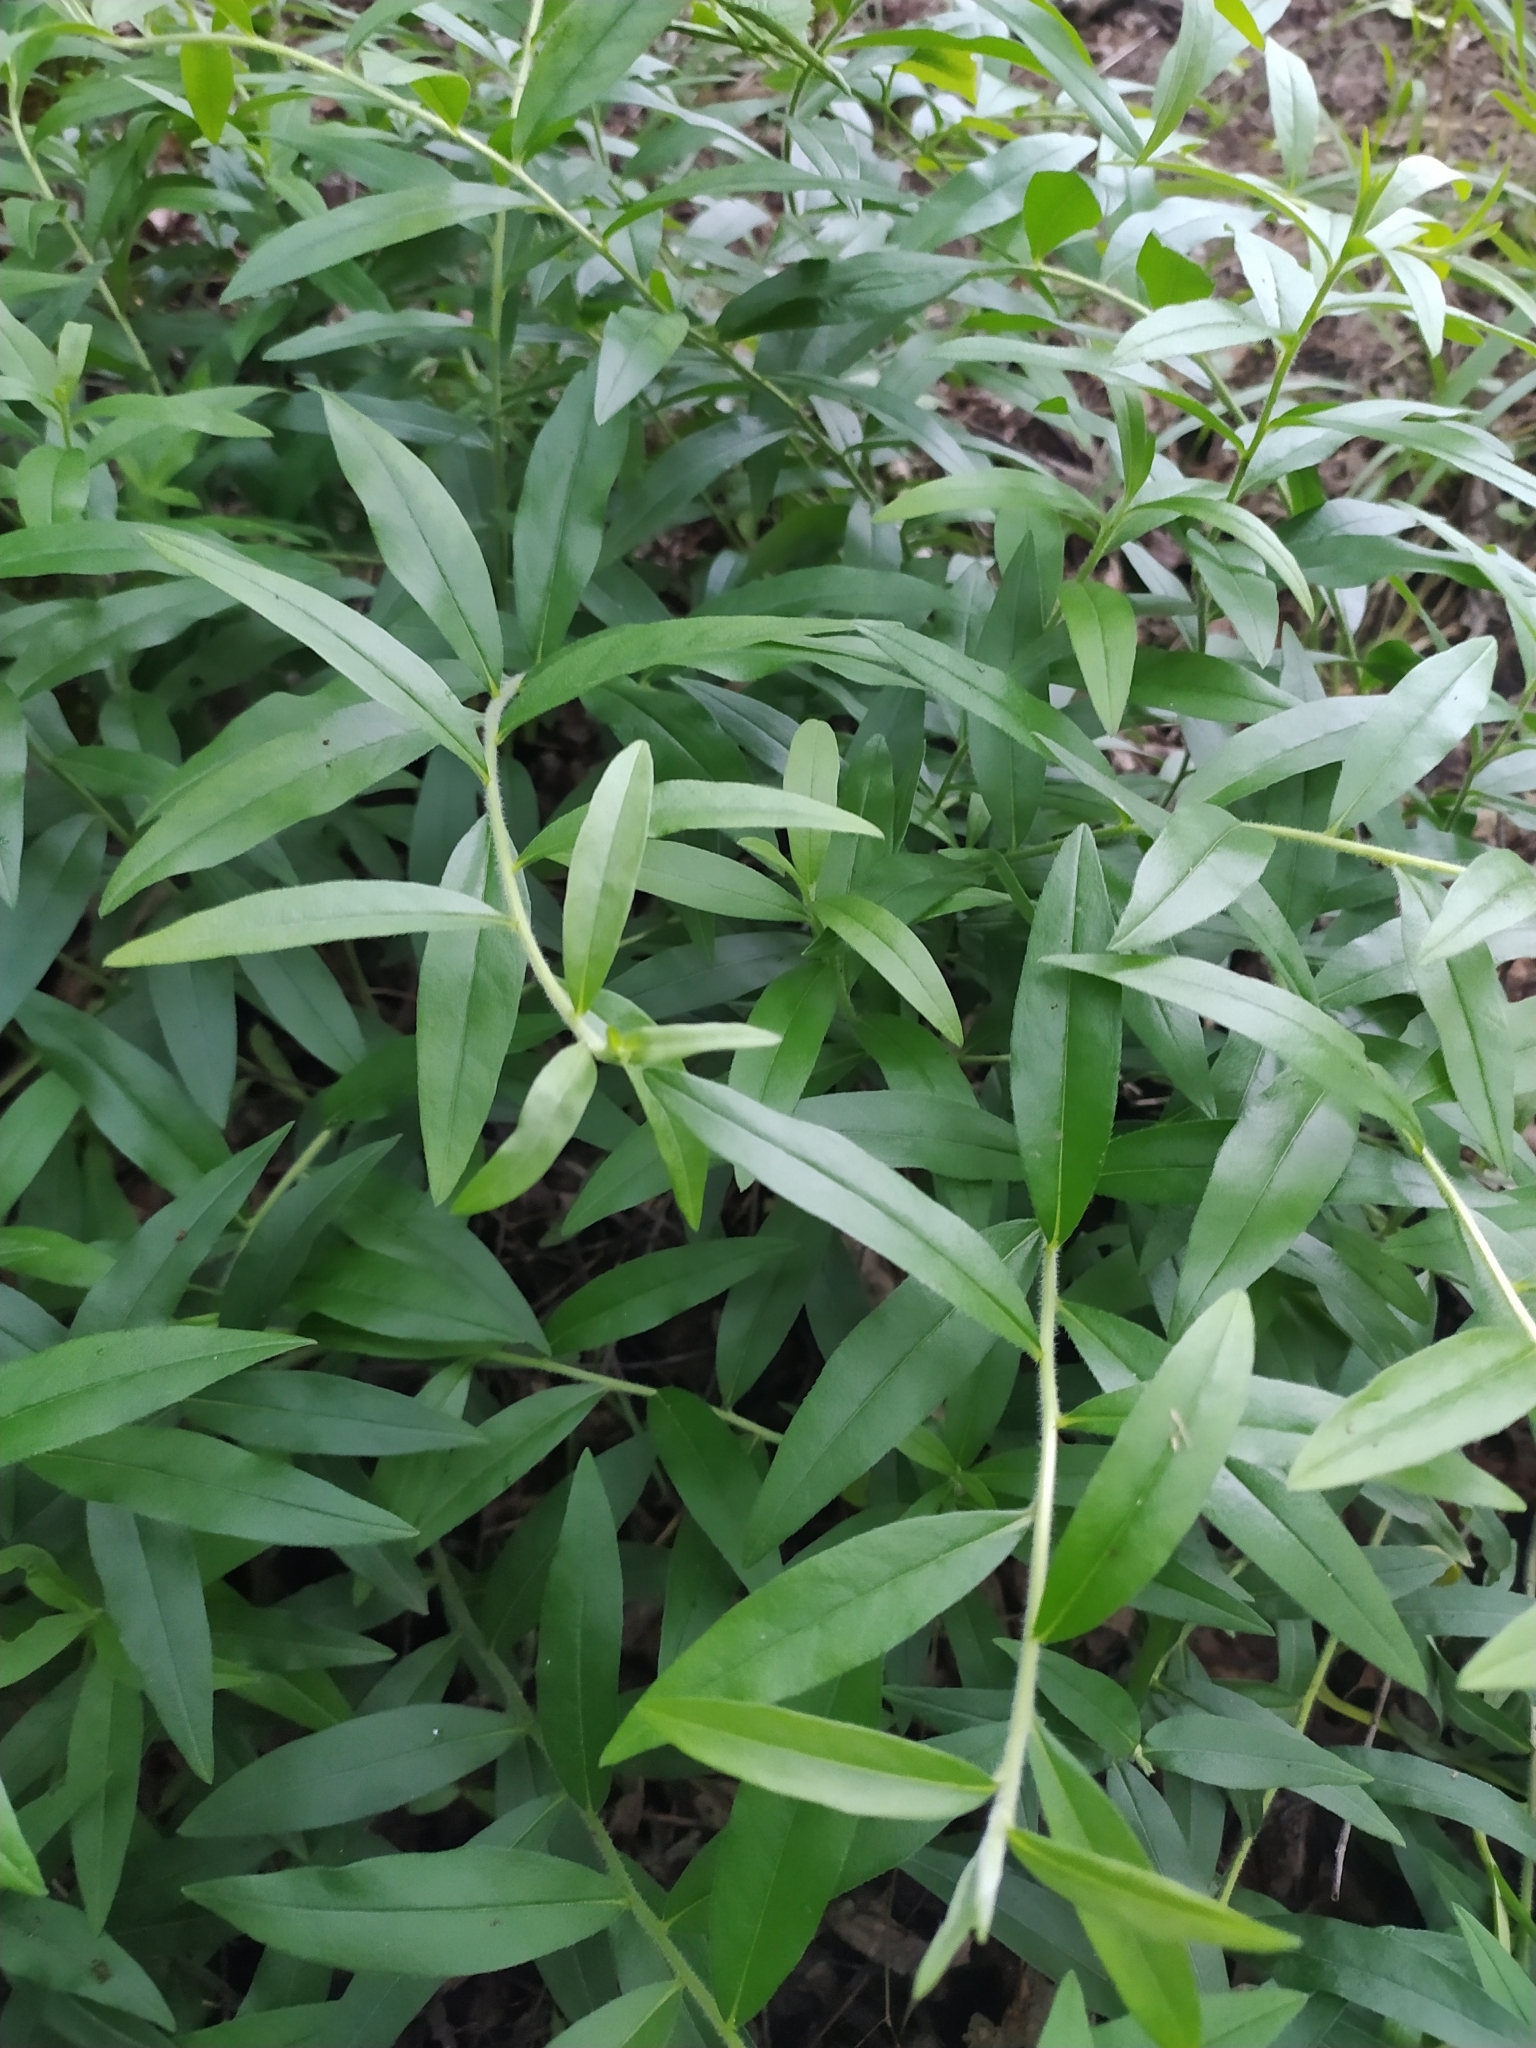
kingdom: Plantae
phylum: Tracheophyta
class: Magnoliopsida
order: Solanales
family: Solanaceae
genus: Lycium
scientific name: Lycium barbarum
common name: Duke of argyll's teaplant
